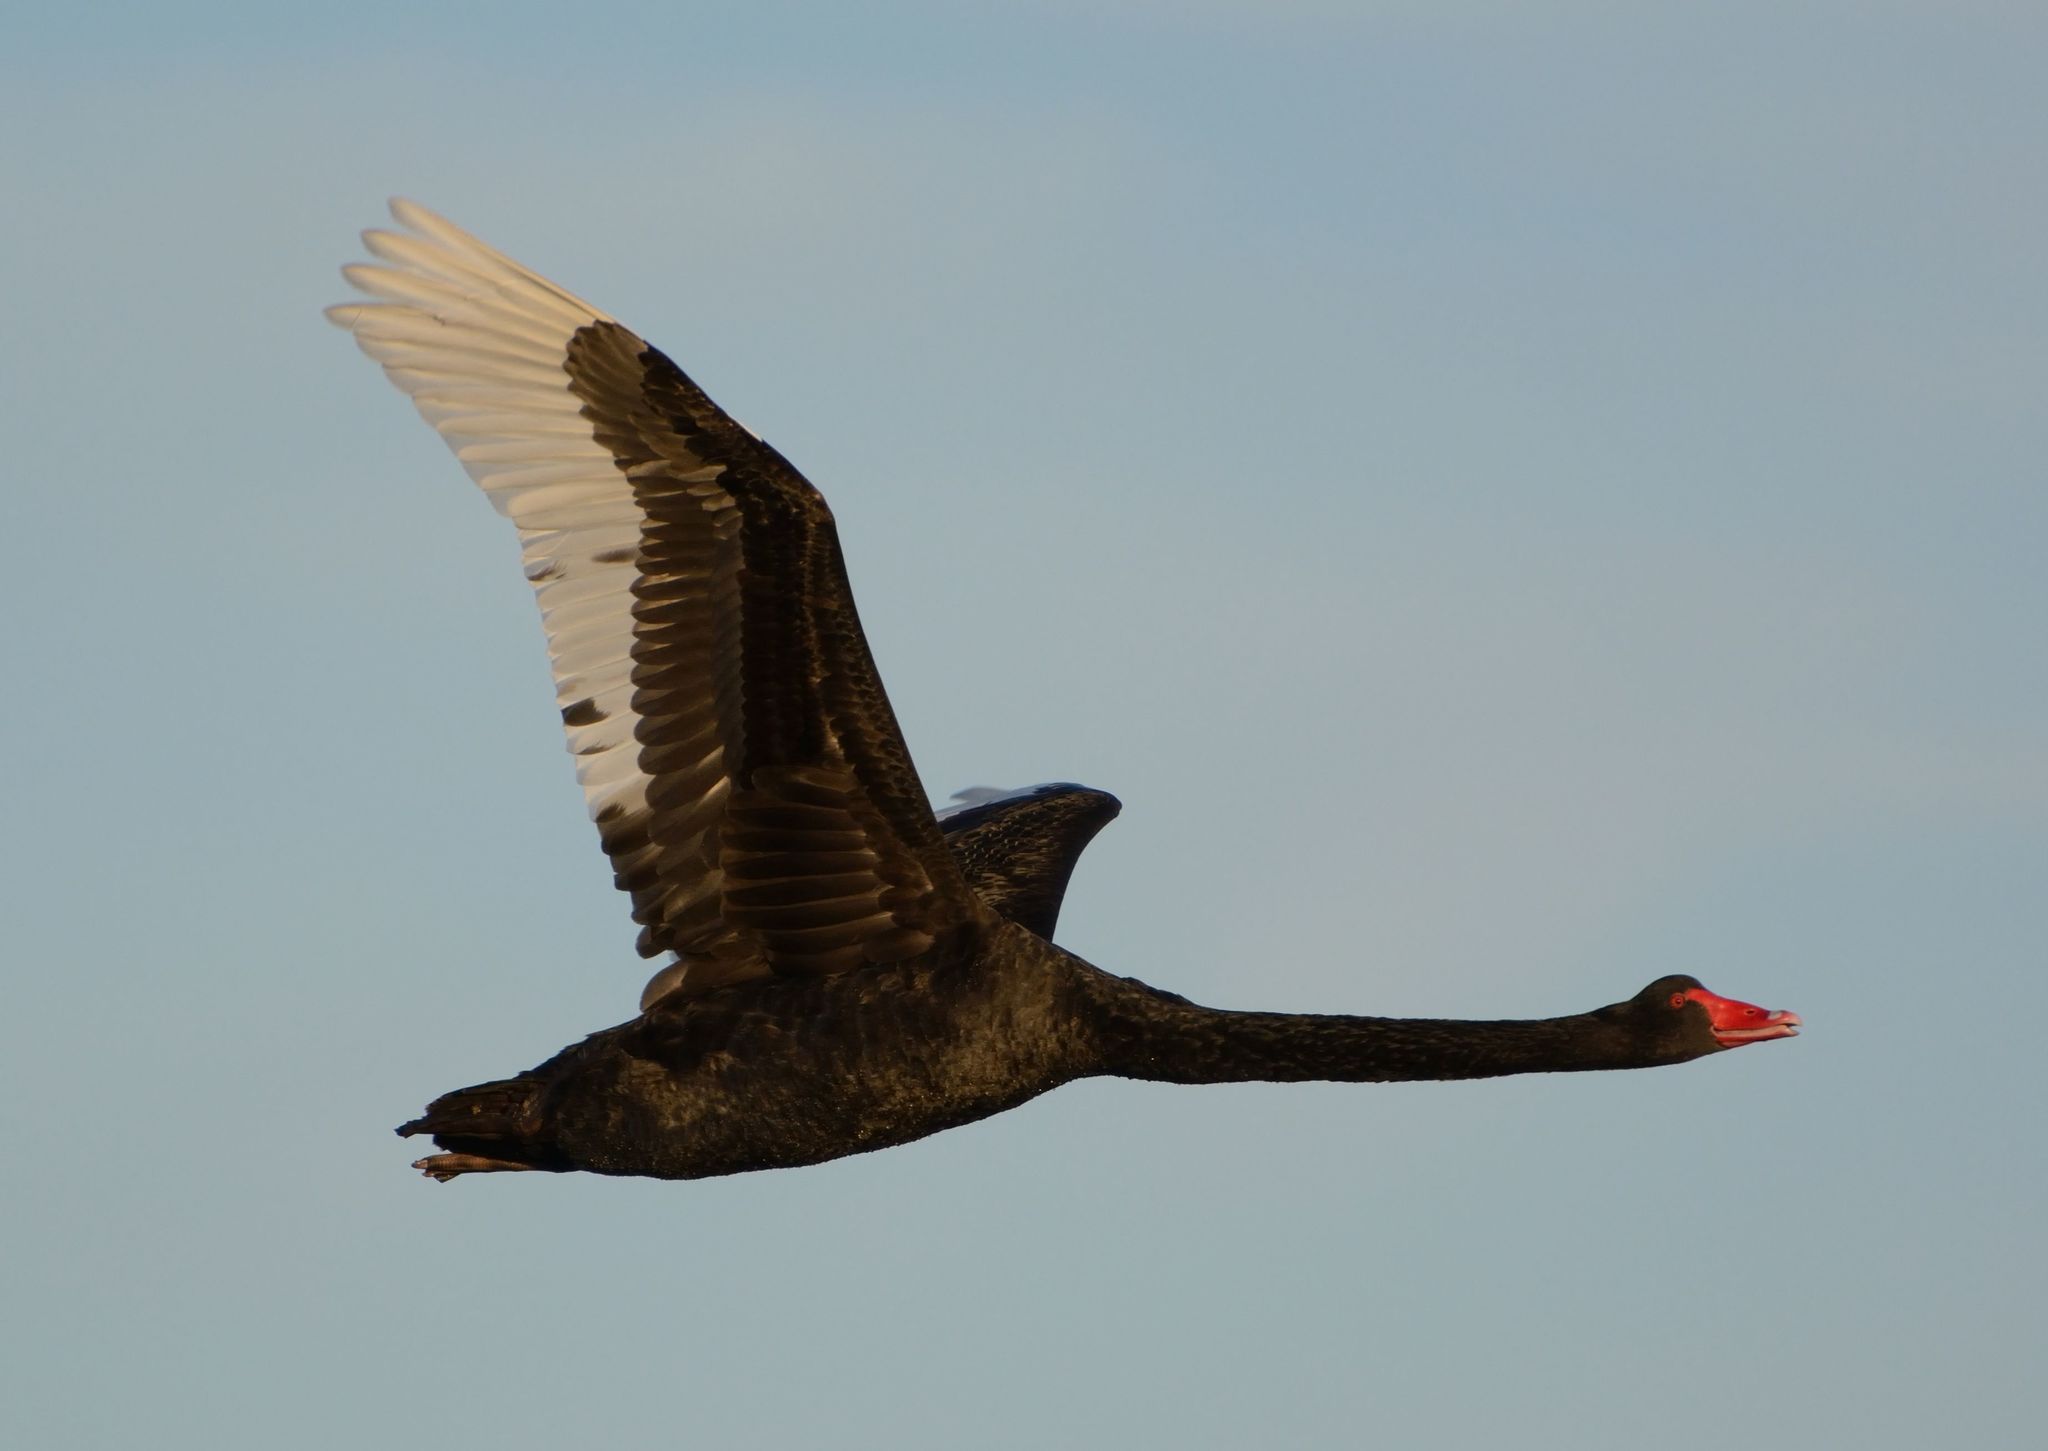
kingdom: Animalia
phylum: Chordata
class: Aves
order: Anseriformes
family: Anatidae
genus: Cygnus
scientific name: Cygnus atratus
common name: Black swan
